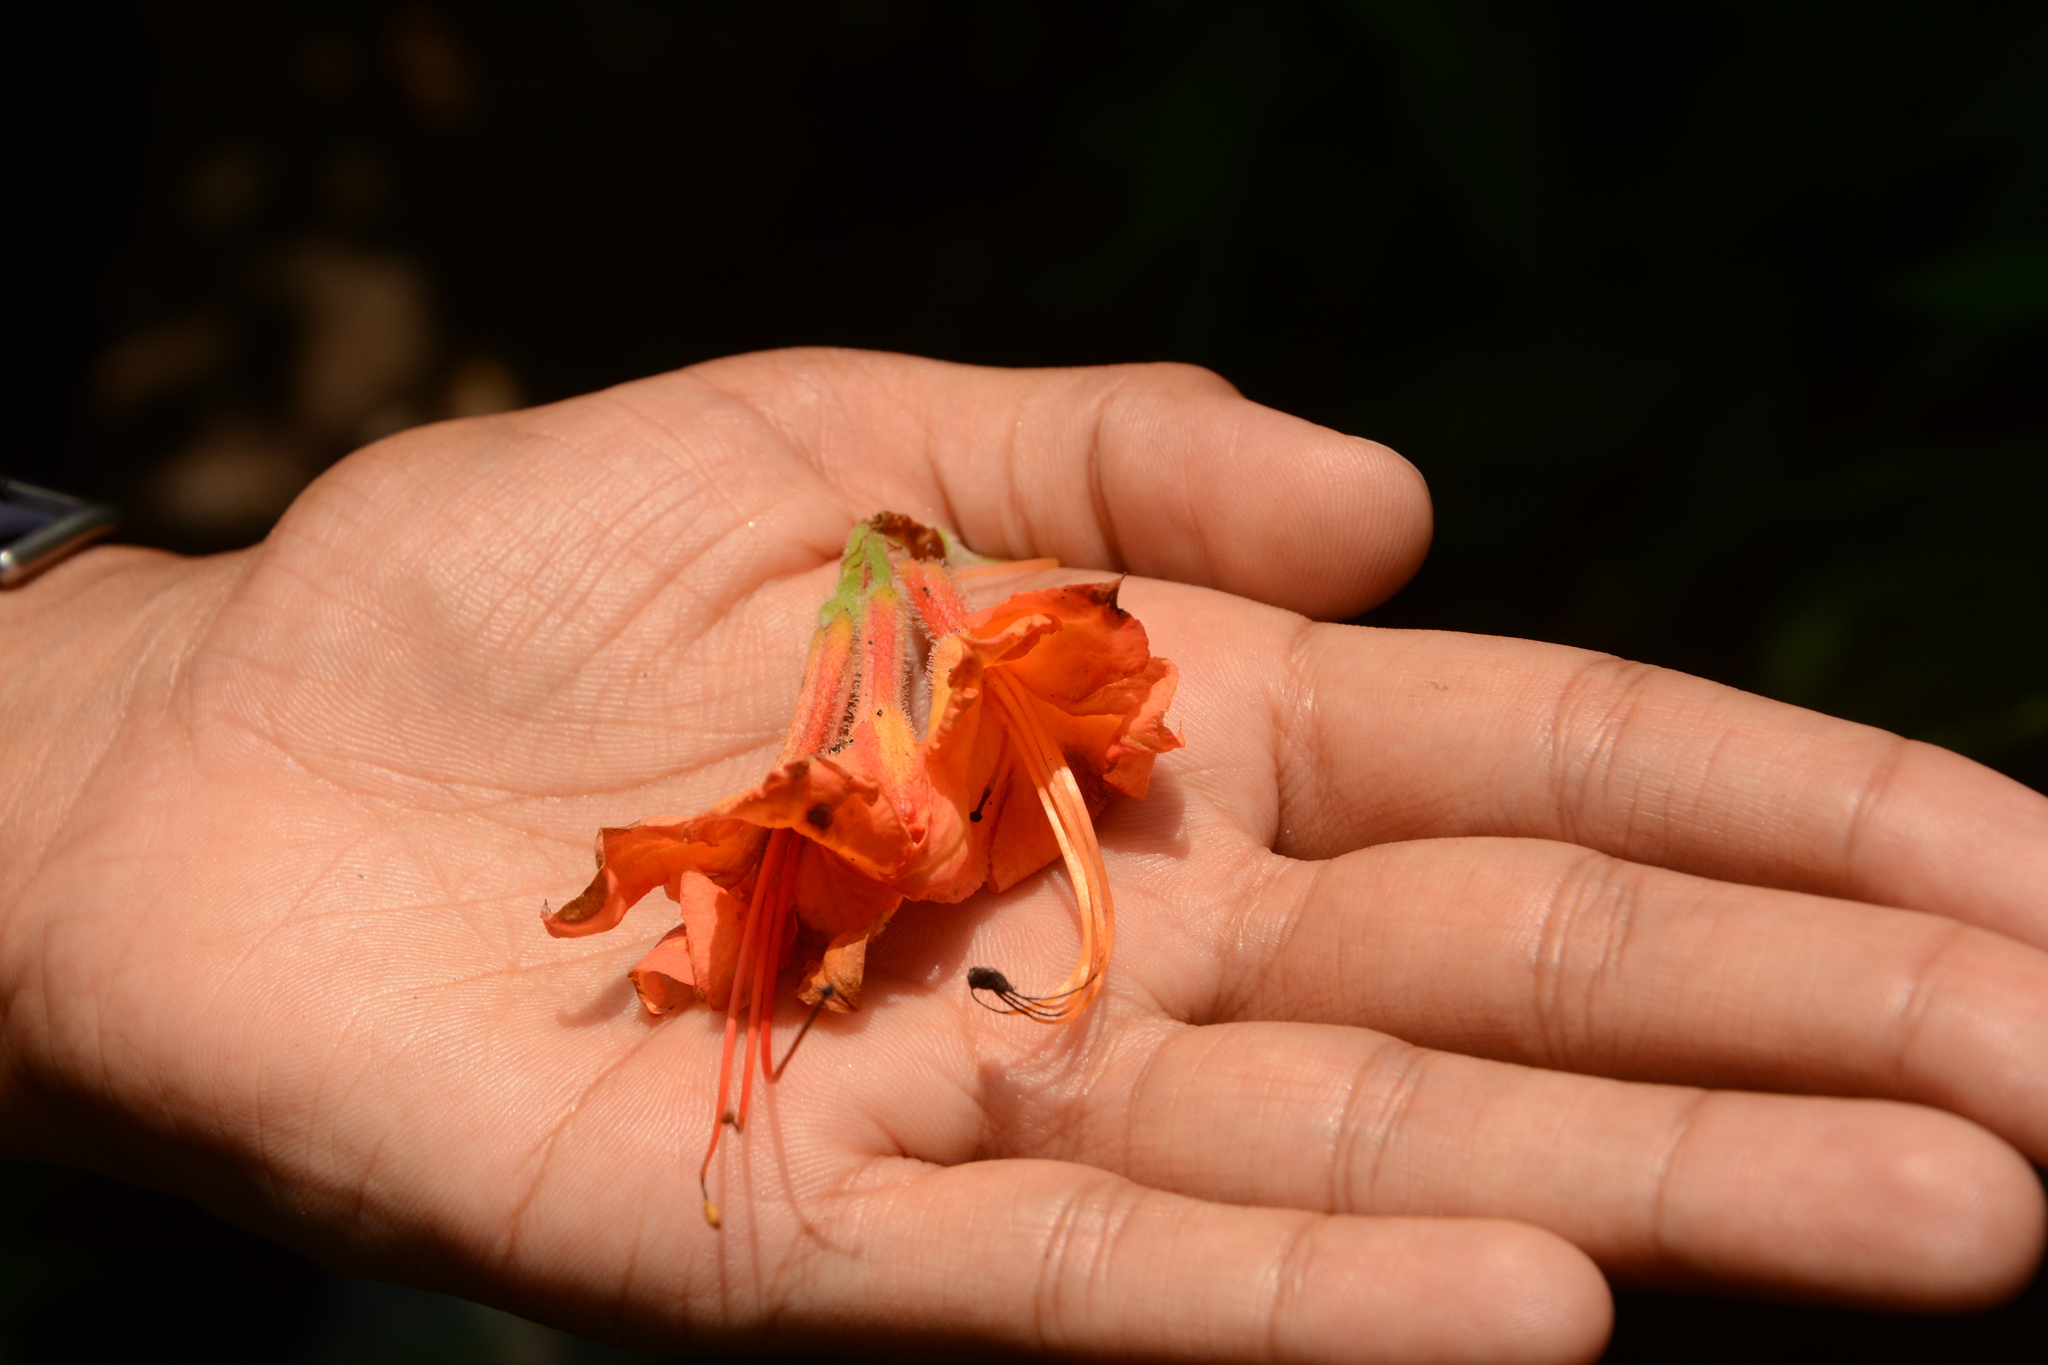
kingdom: Plantae
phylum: Tracheophyta
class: Magnoliopsida
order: Ericales
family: Ericaceae
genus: Rhododendron
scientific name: Rhododendron calendulaceum
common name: Flame azalea
